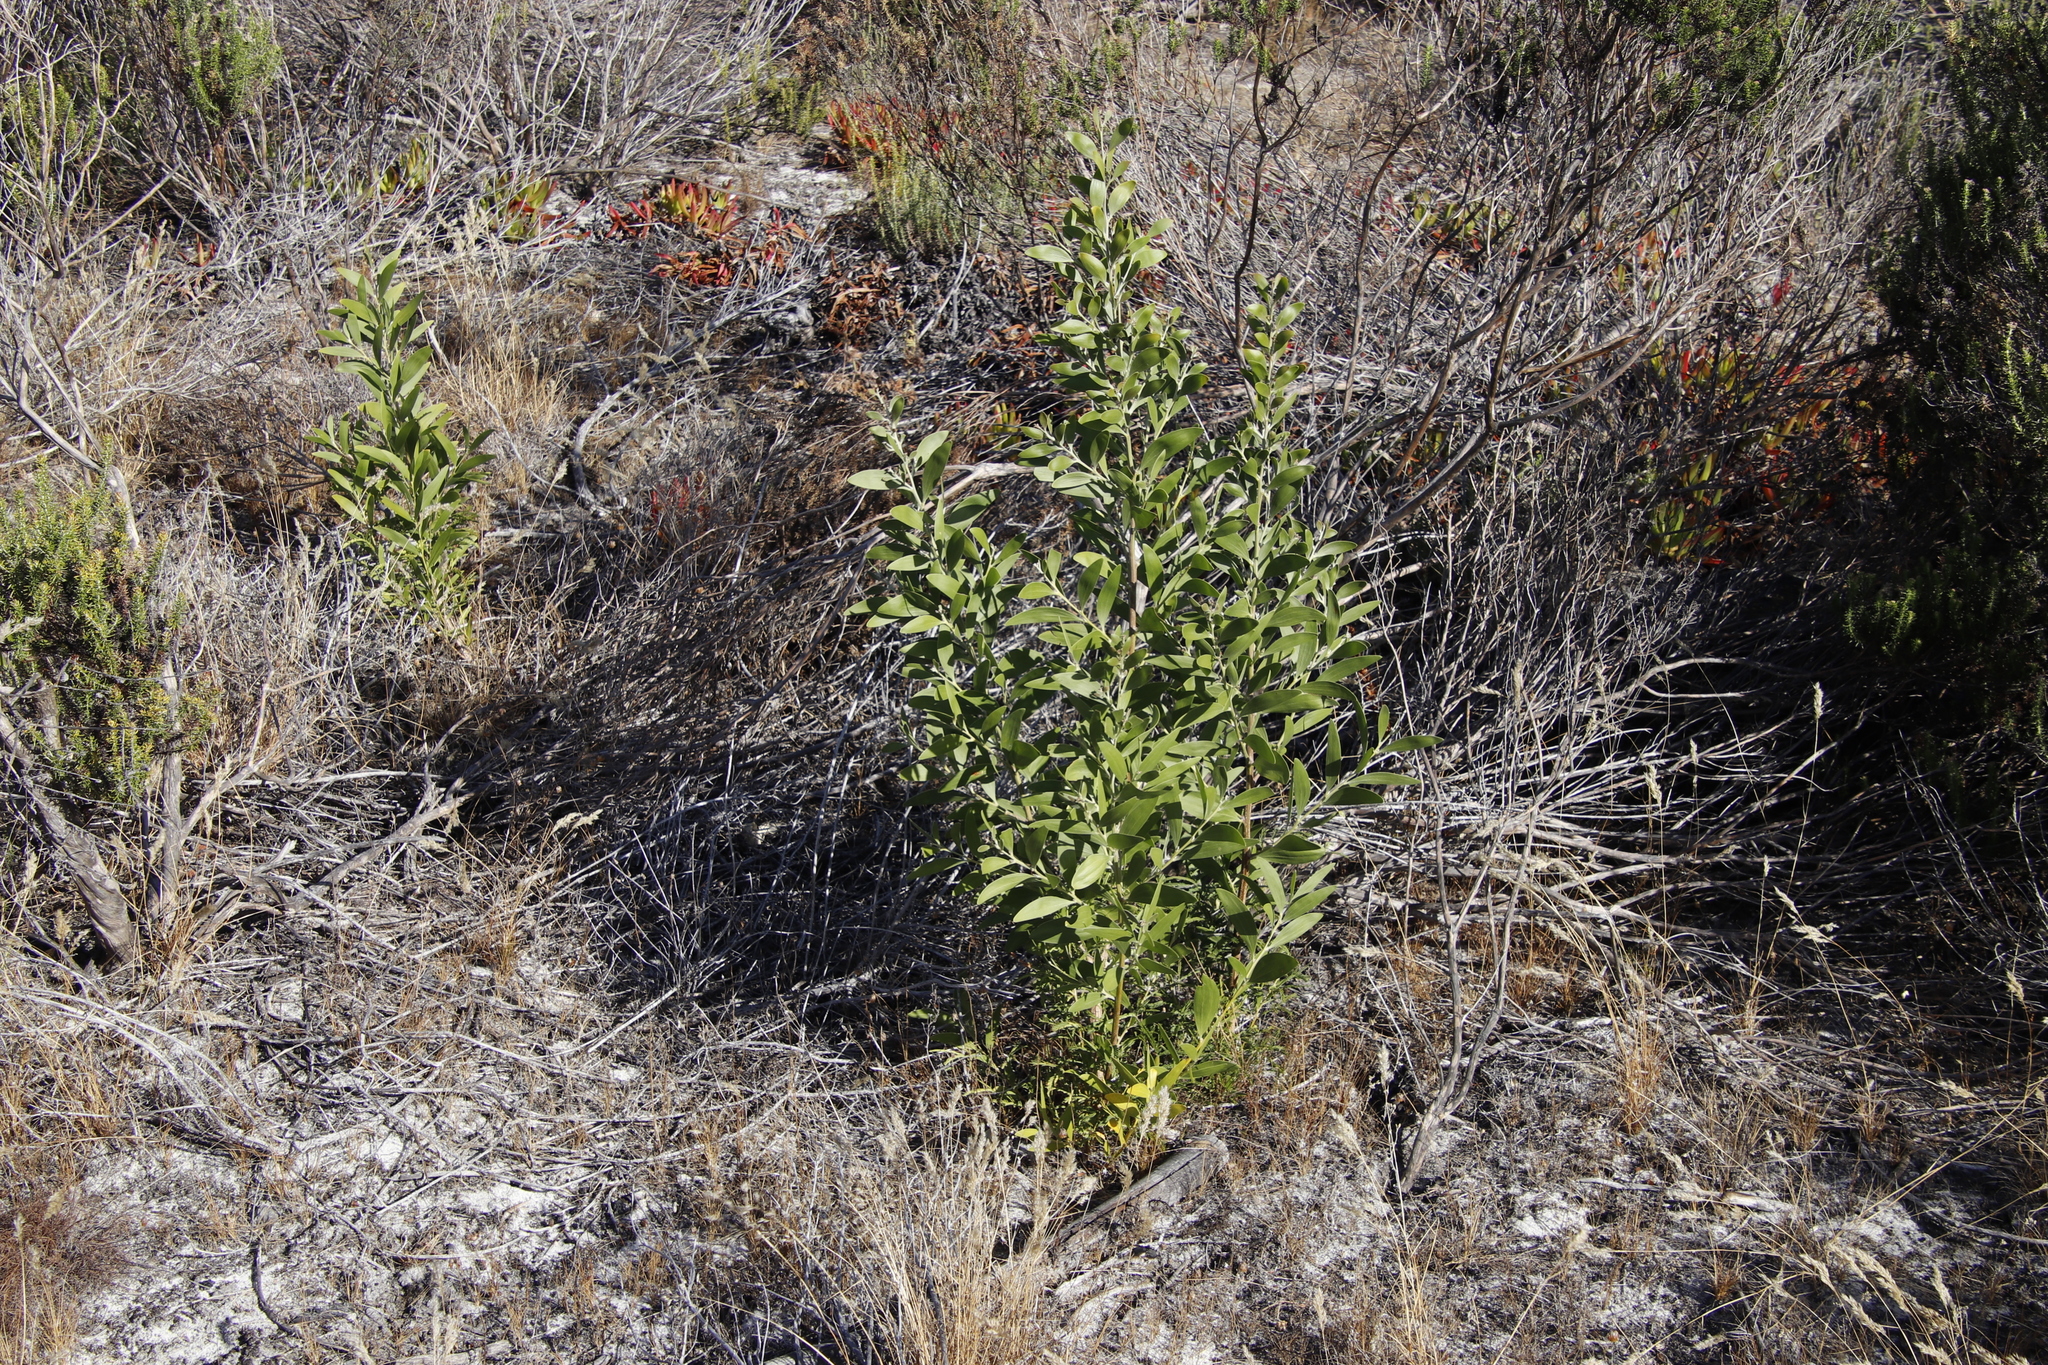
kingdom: Plantae
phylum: Tracheophyta
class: Magnoliopsida
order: Fabales
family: Fabaceae
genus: Acacia
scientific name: Acacia melanoxylon
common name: Blackwood
